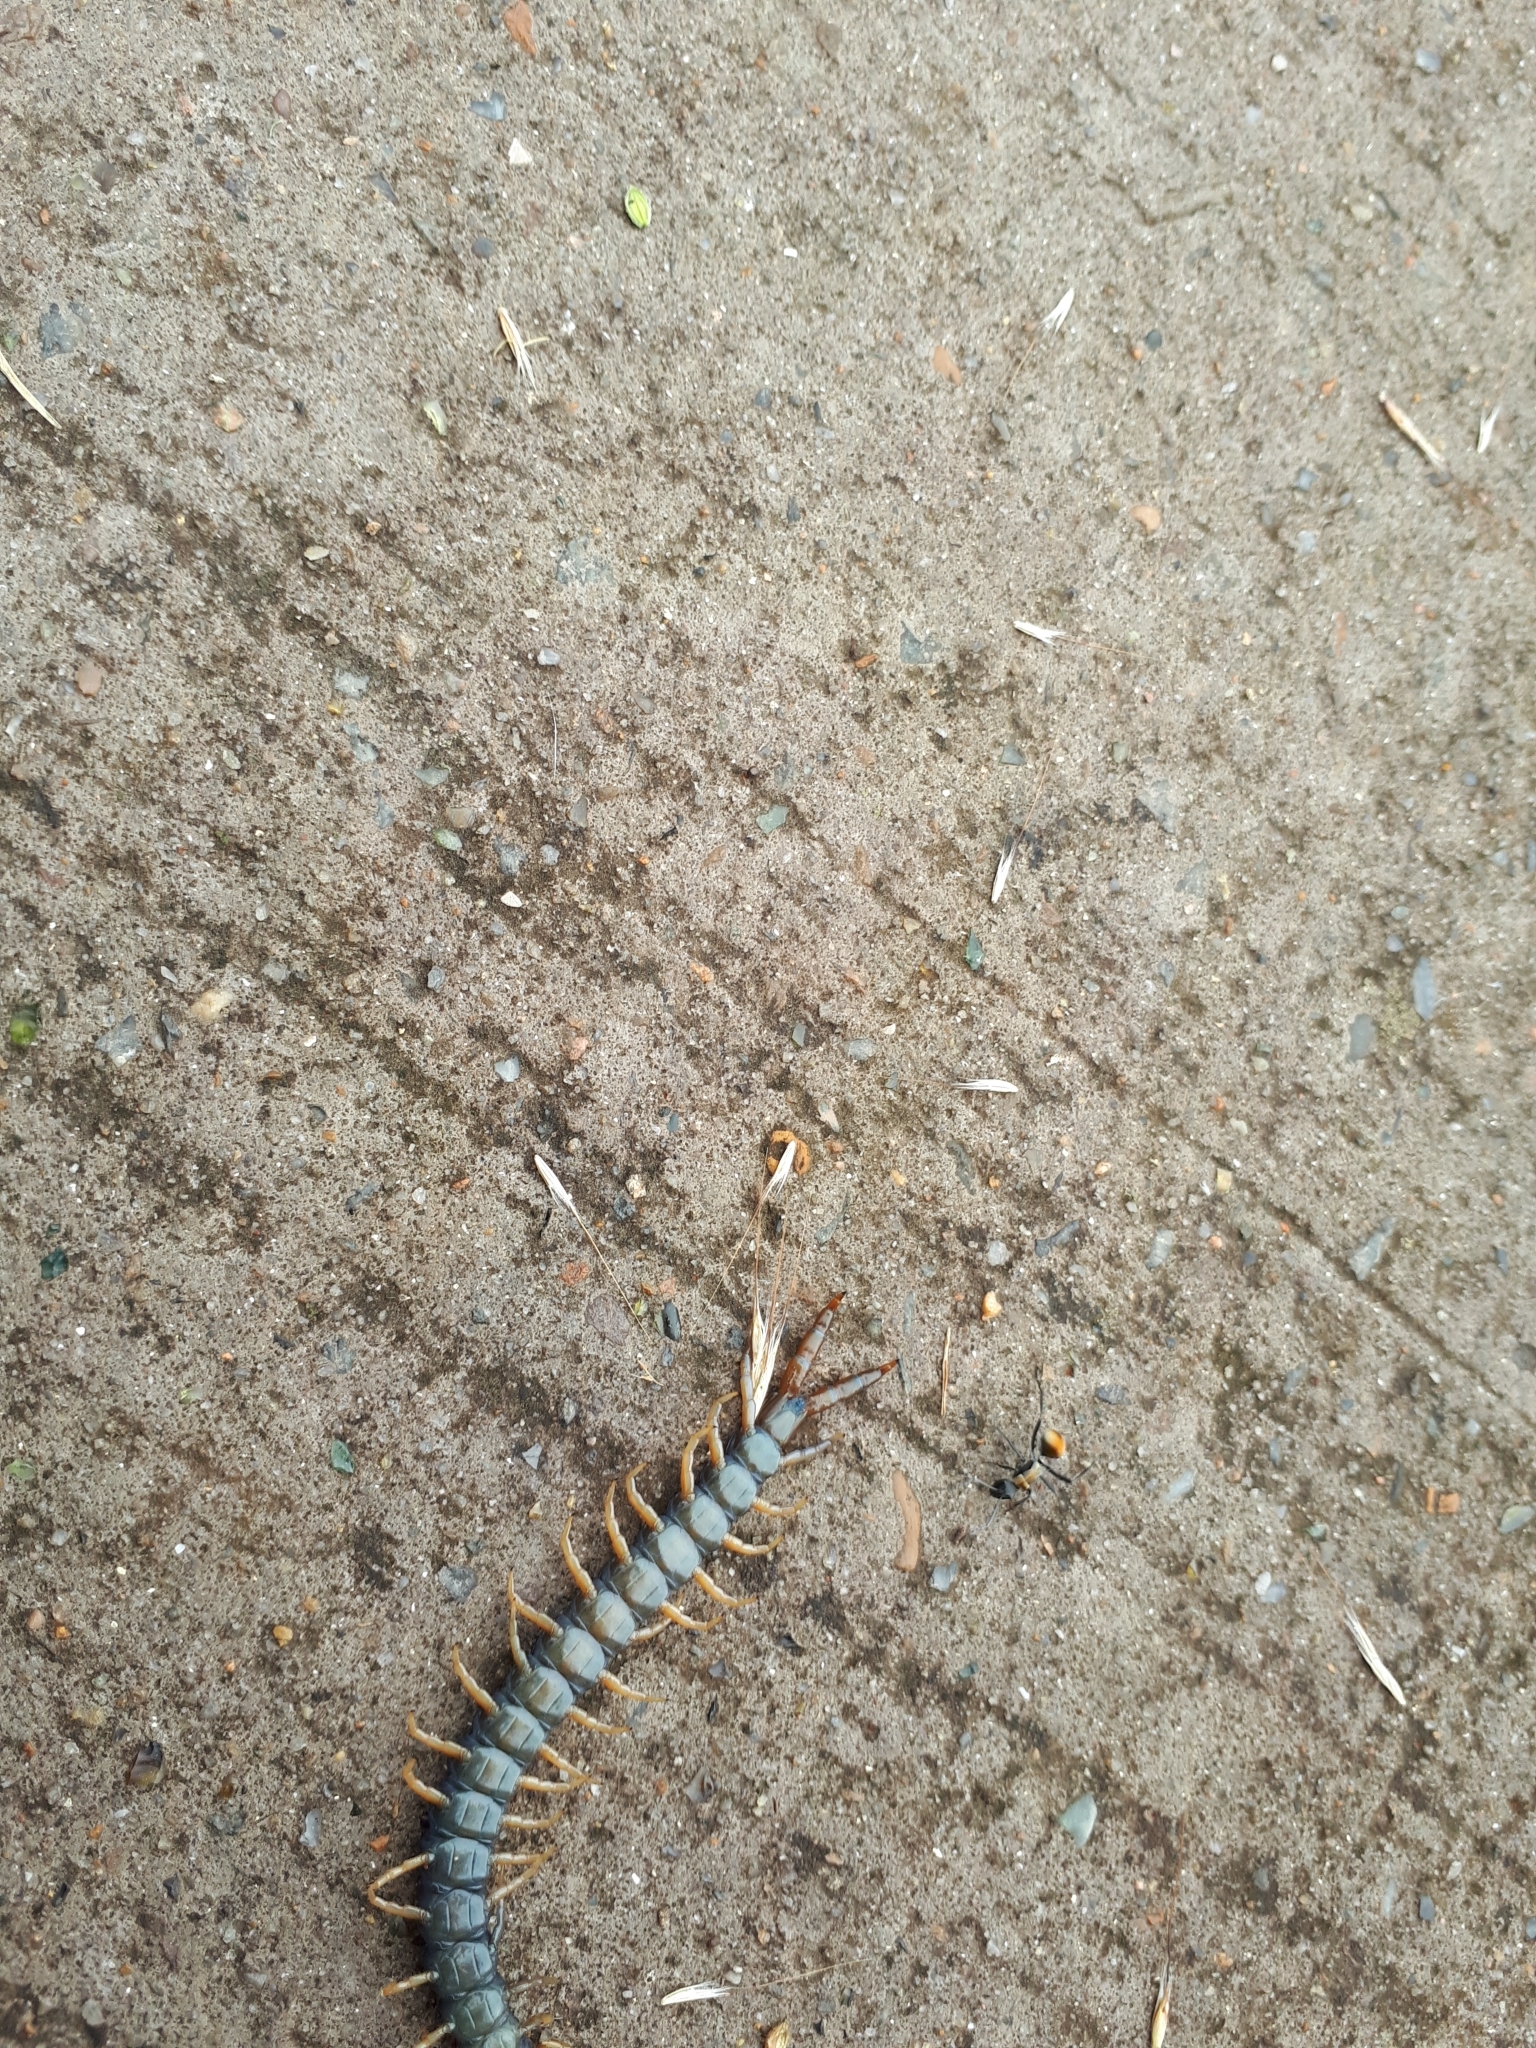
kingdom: Animalia
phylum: Arthropoda
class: Chilopoda
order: Scolopendromorpha
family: Scolopendridae
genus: Cormocephalus
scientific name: Cormocephalus westwoodi
